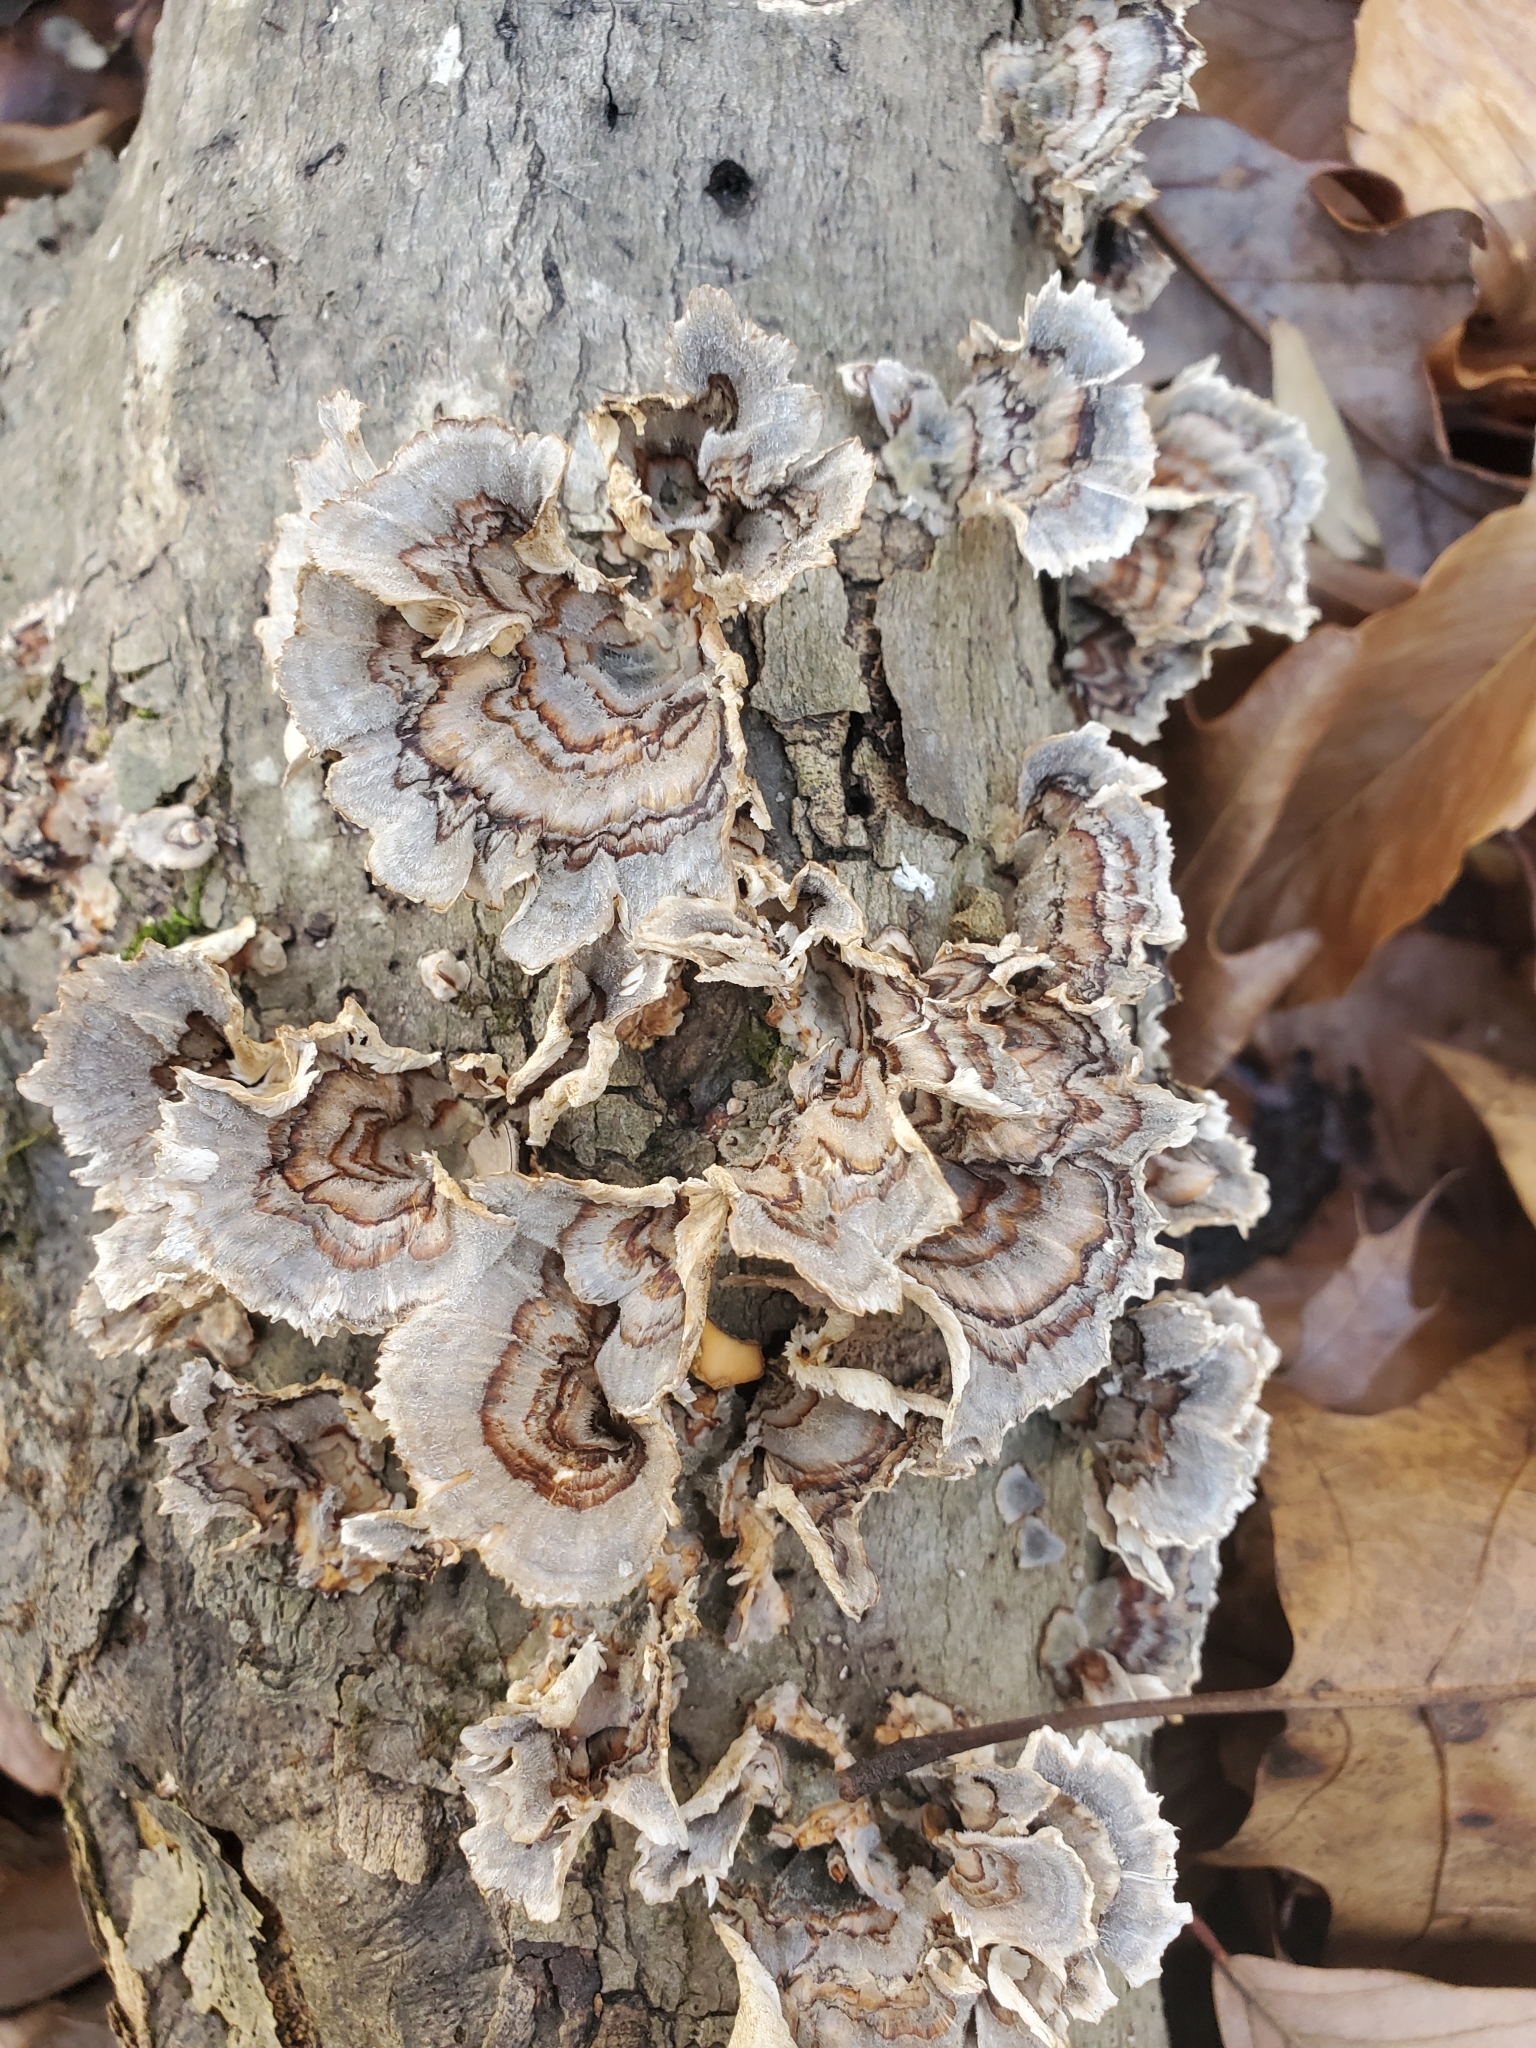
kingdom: Fungi
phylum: Basidiomycota
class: Agaricomycetes
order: Polyporales
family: Polyporaceae
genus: Trametes
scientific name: Trametes versicolor
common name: Turkeytail
